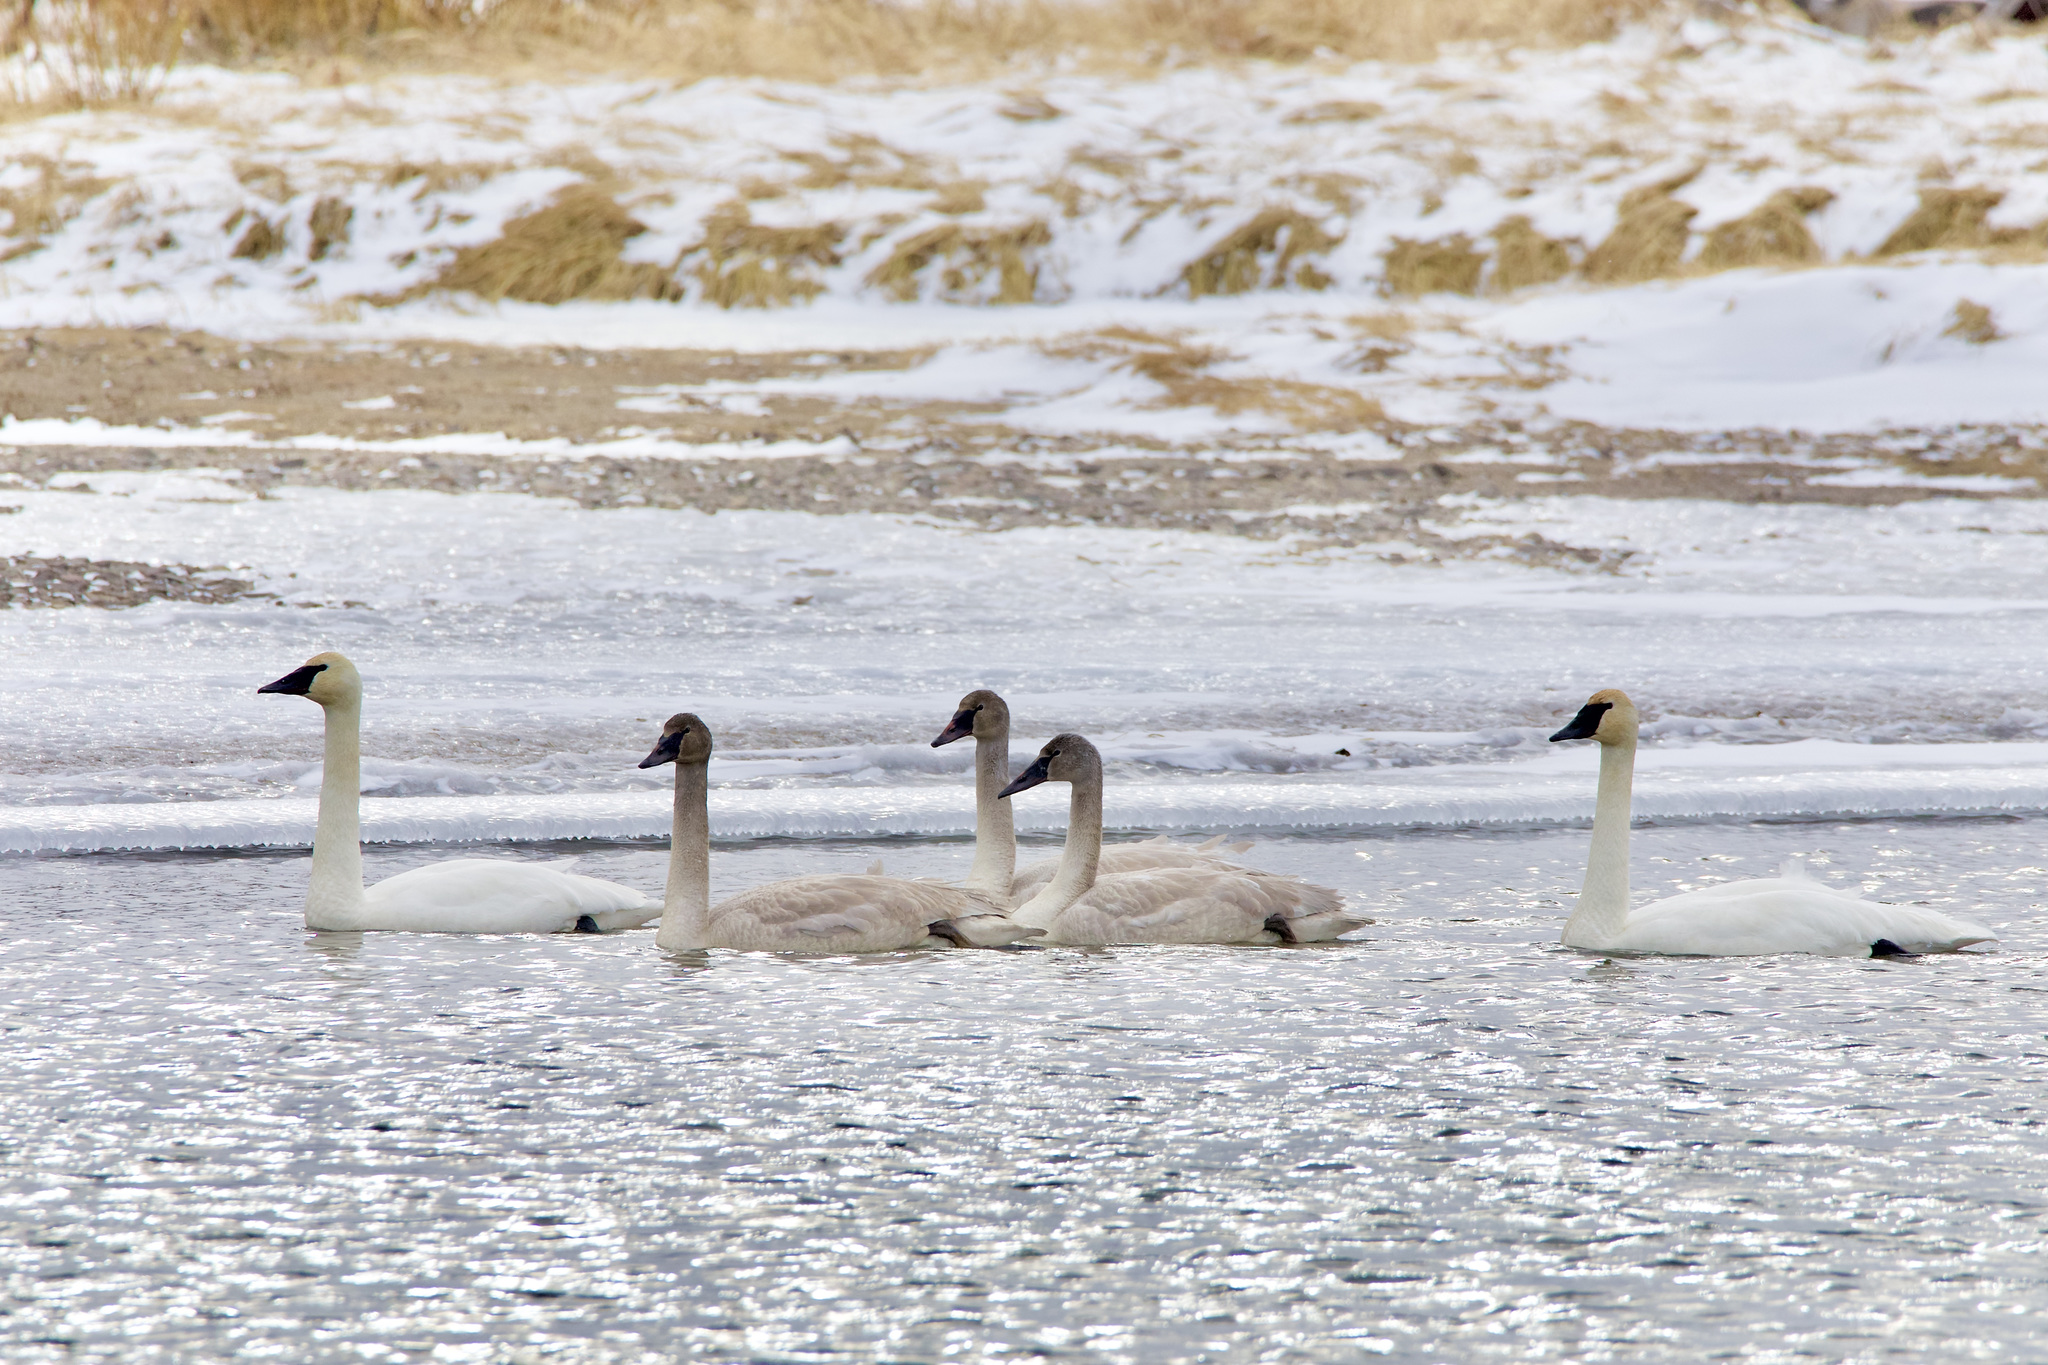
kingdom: Animalia
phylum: Chordata
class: Aves
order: Anseriformes
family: Anatidae
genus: Cygnus
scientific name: Cygnus buccinator
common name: Trumpeter swan
